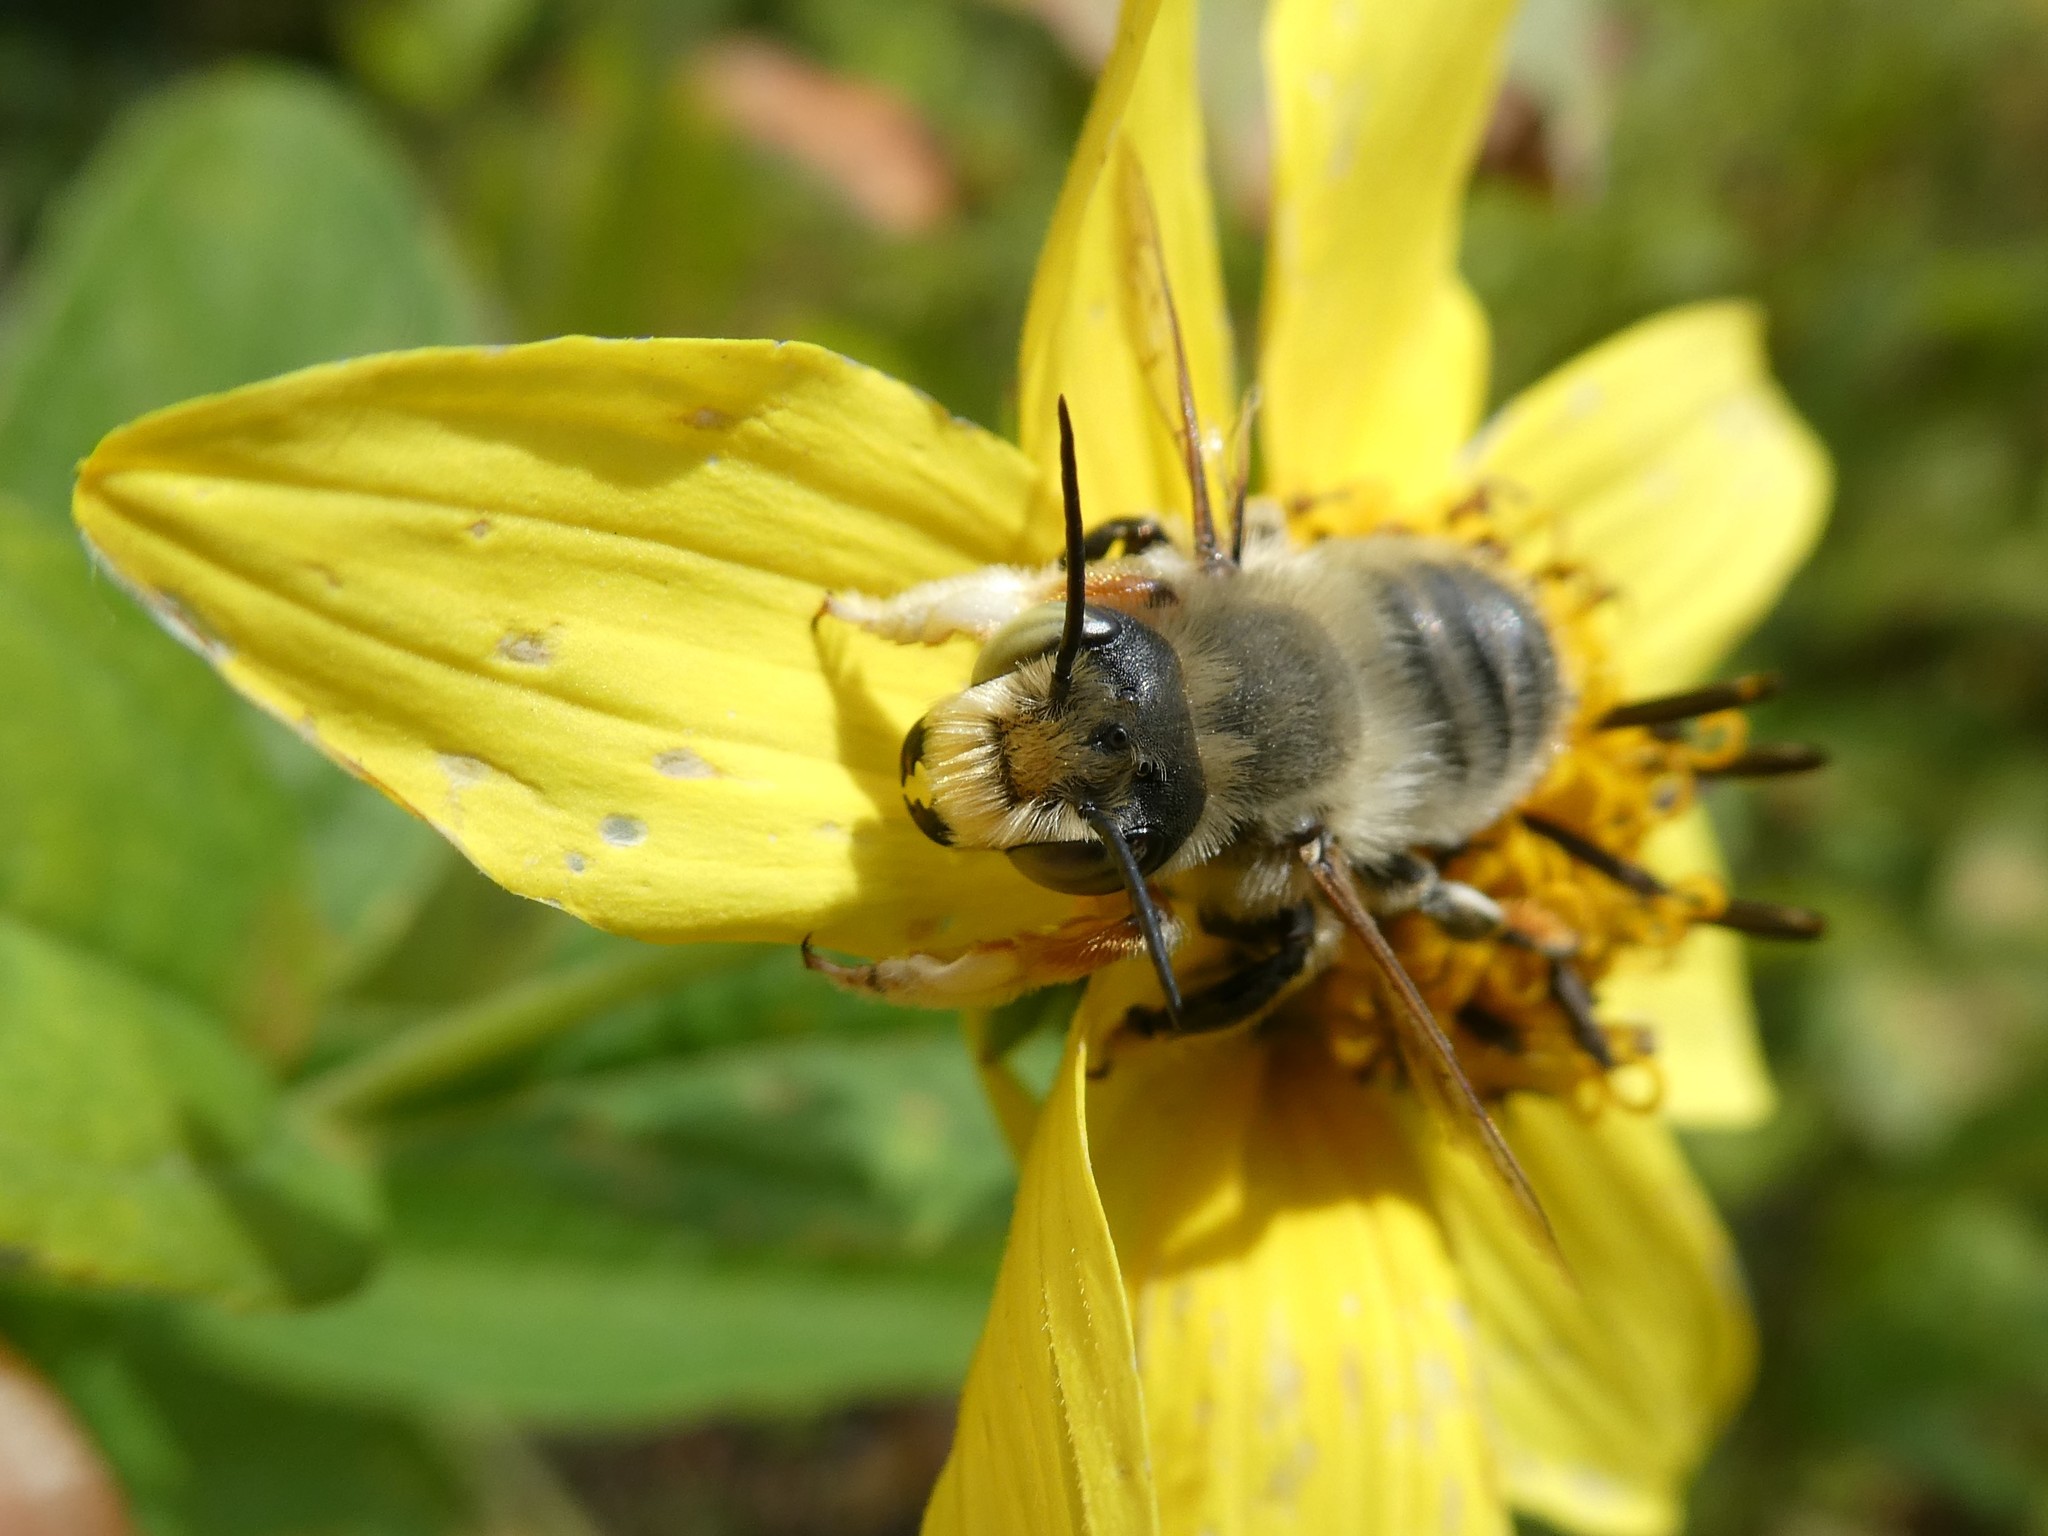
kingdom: Animalia
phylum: Arthropoda
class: Insecta
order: Hymenoptera
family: Megachilidae
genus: Megachile
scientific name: Megachile latimanus
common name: Leafcutting bee
